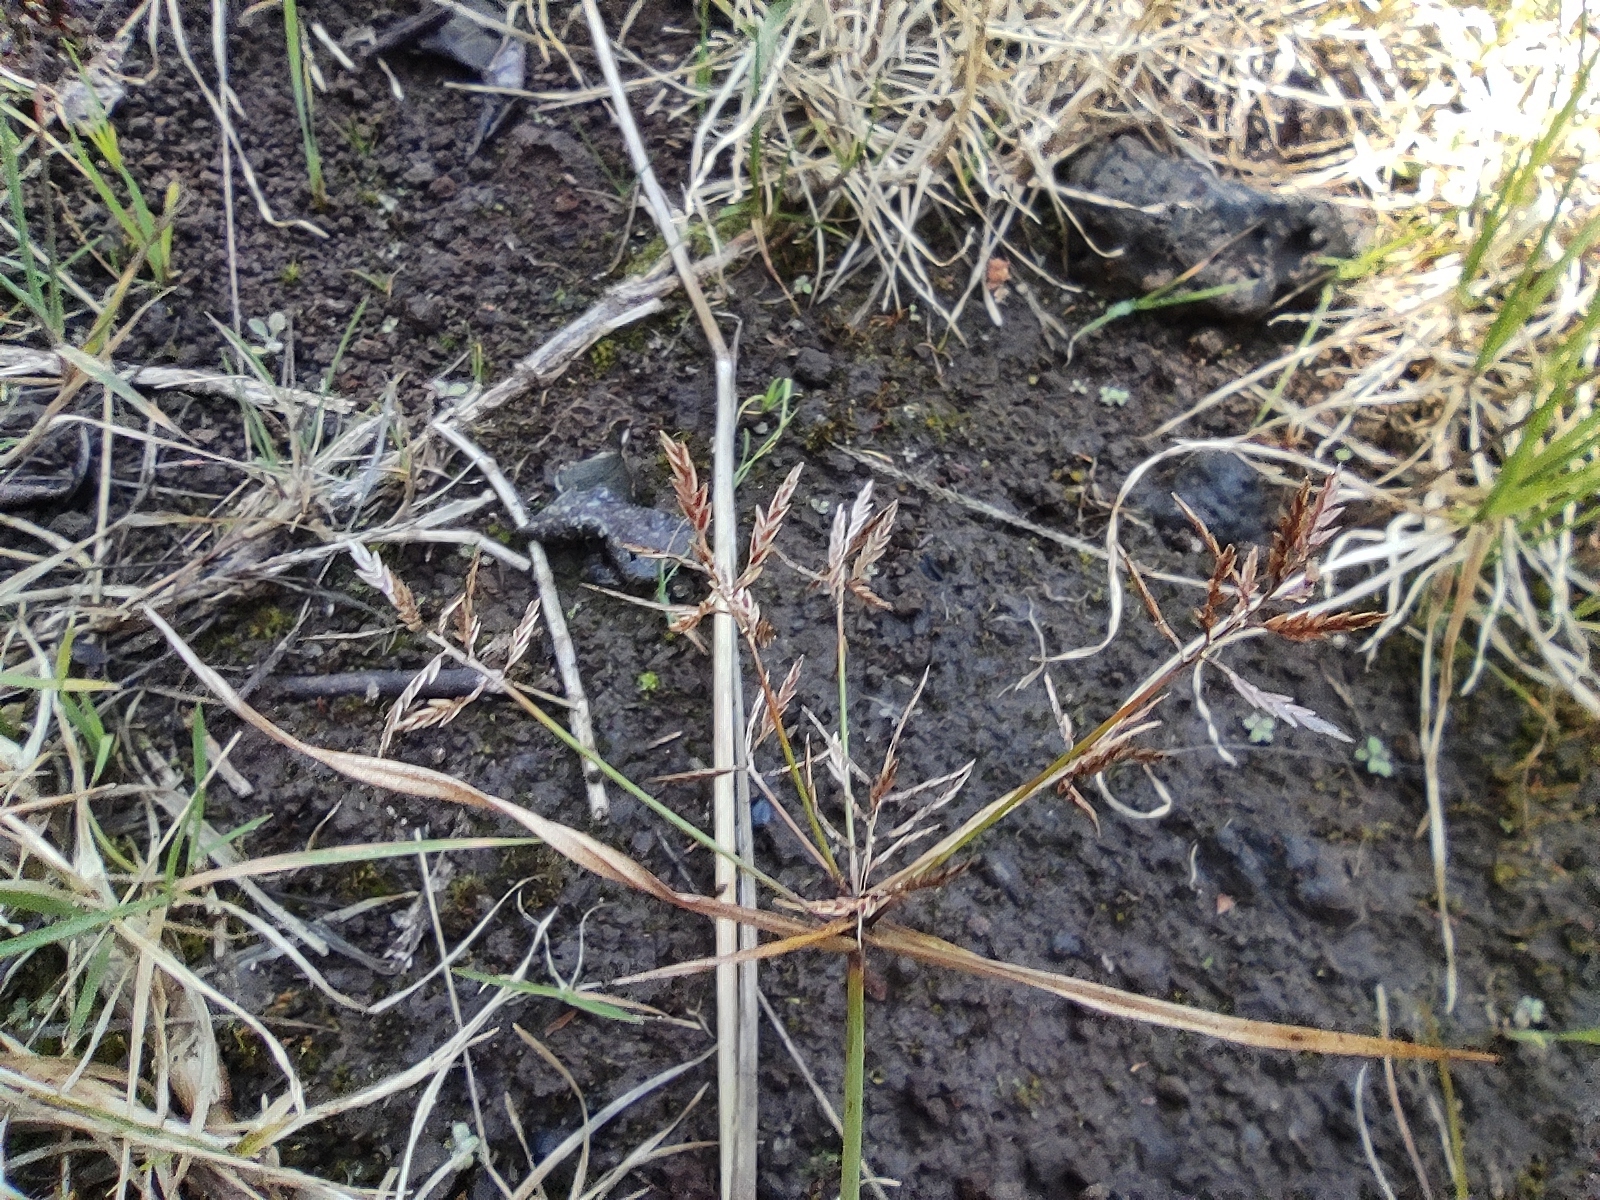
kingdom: Plantae
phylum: Tracheophyta
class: Liliopsida
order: Poales
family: Cyperaceae
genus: Cyperus
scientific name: Cyperus intactus
